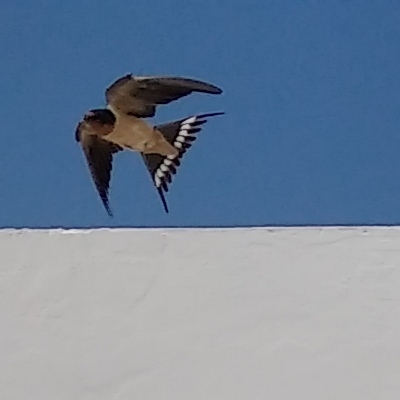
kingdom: Animalia
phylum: Chordata
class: Aves
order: Passeriformes
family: Hirundinidae
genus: Hirundo
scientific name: Hirundo rustica
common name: Barn swallow
